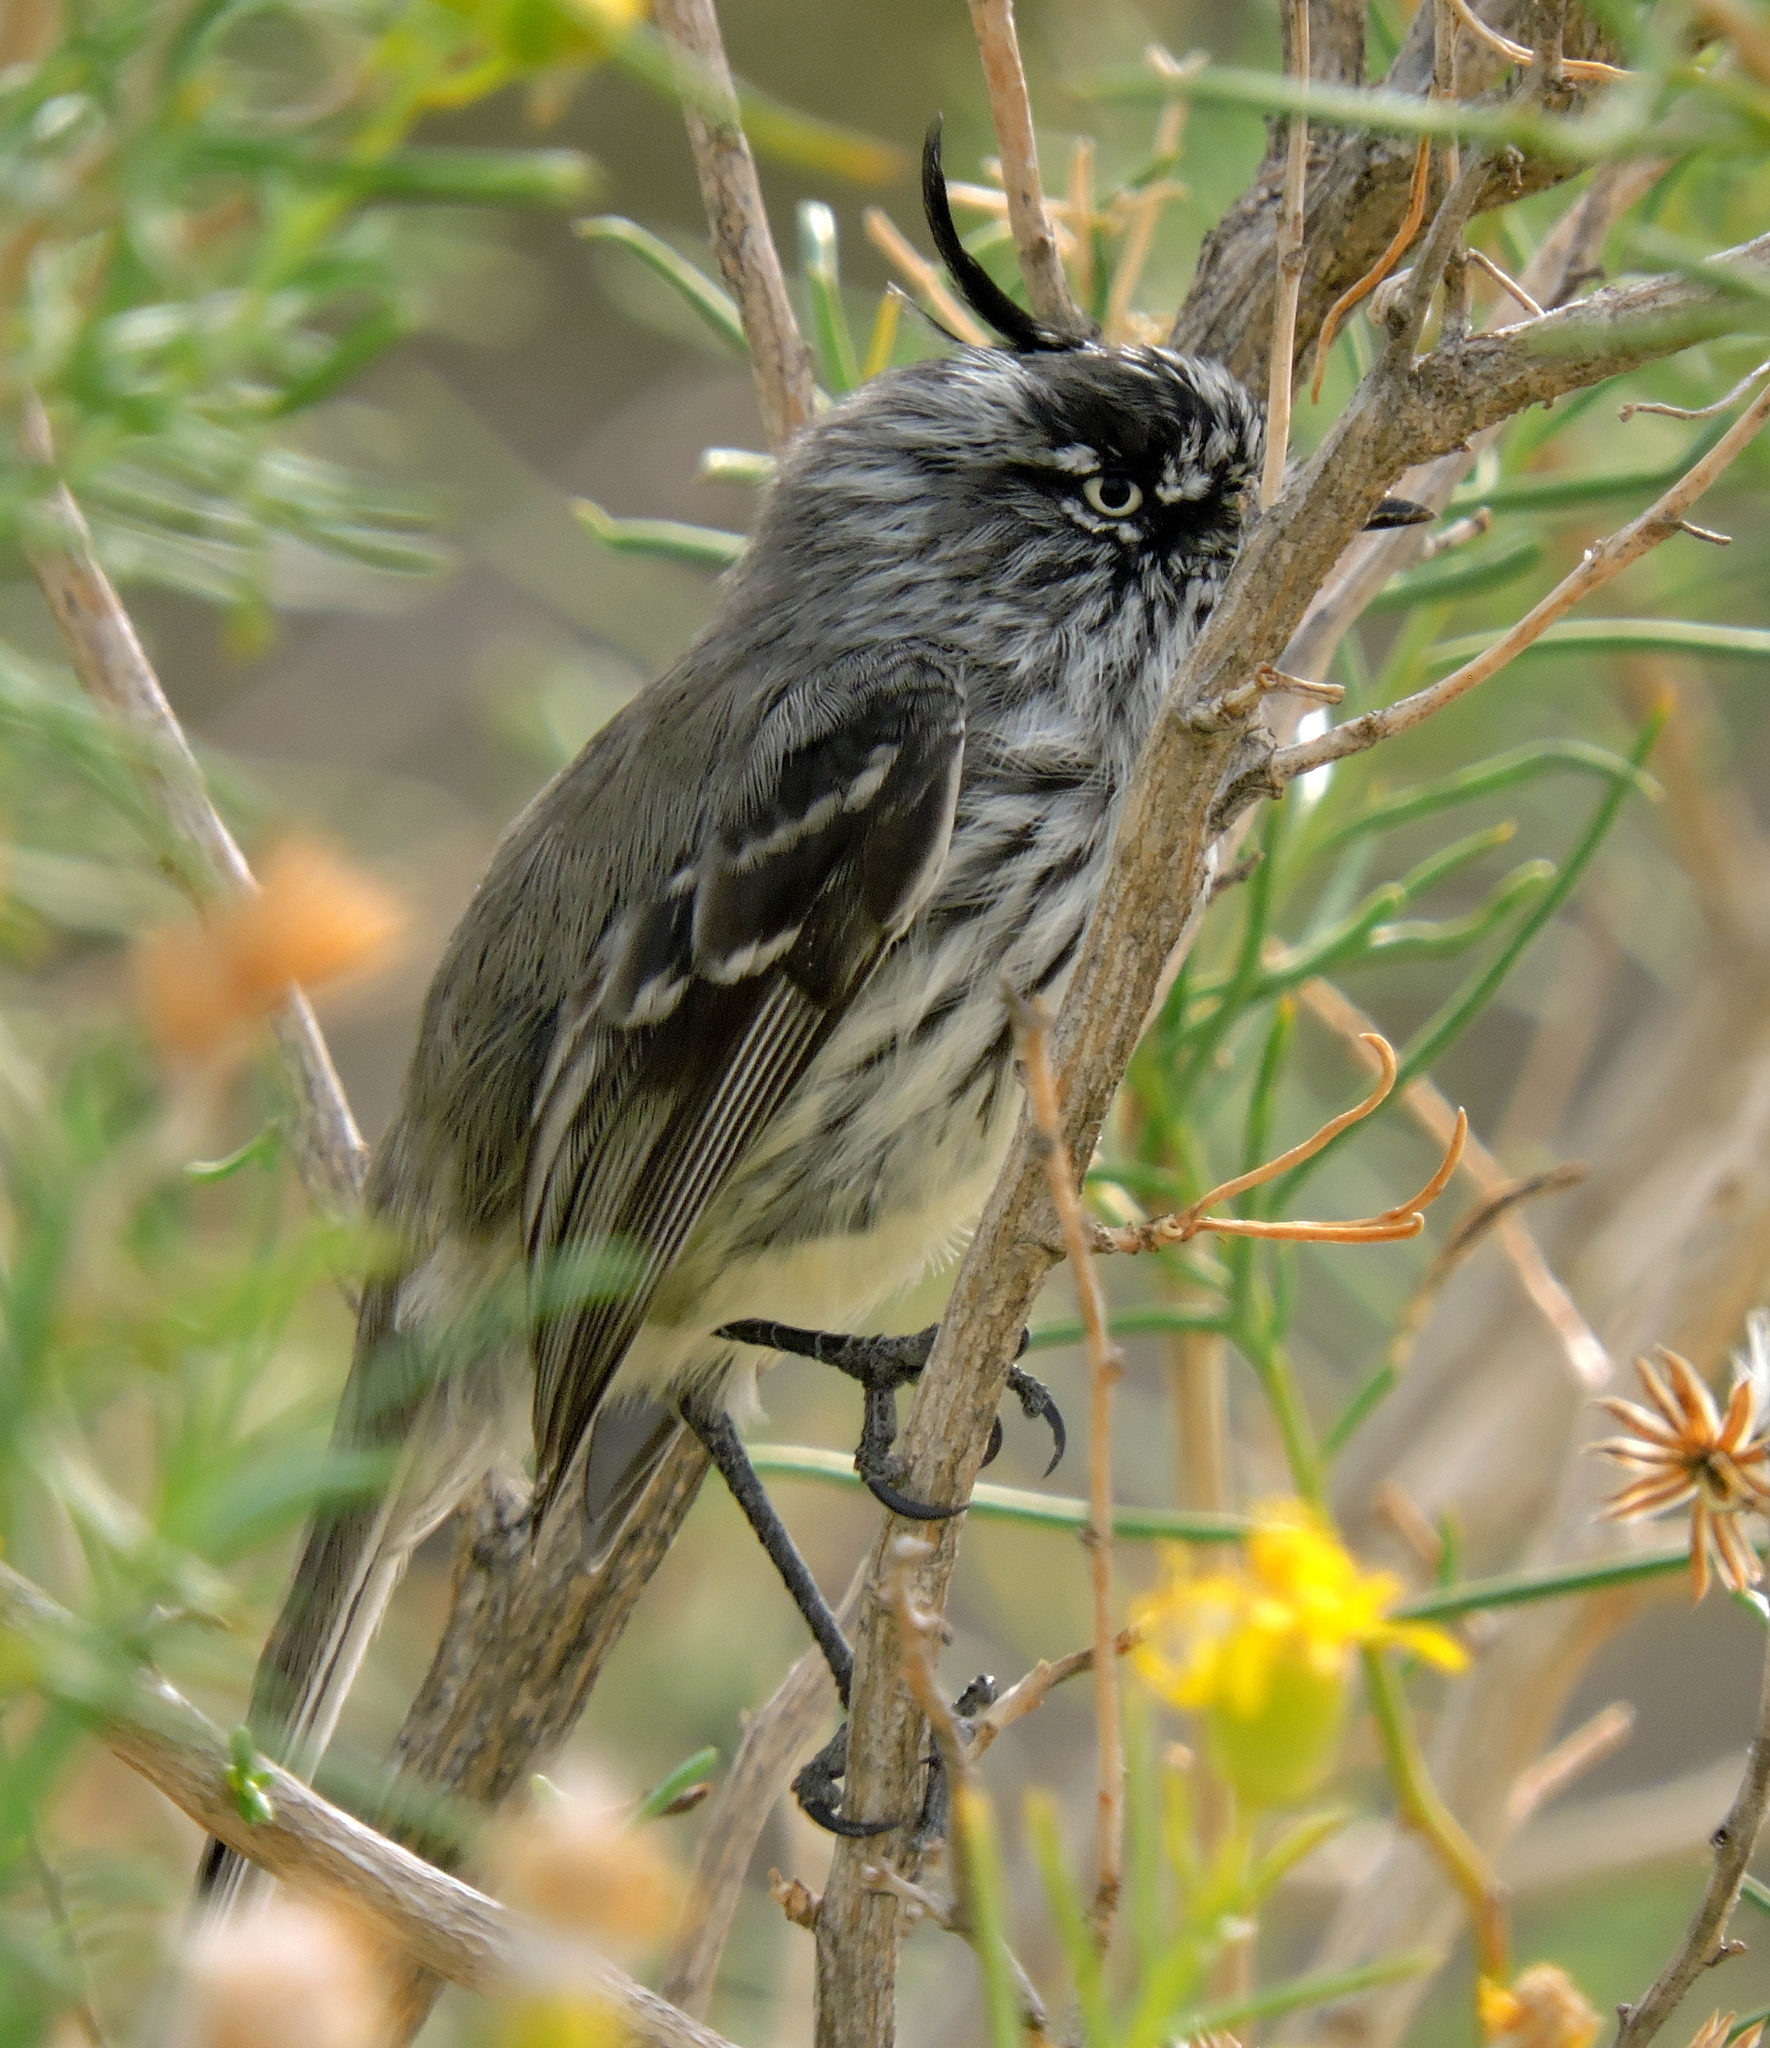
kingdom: Animalia
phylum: Chordata
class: Aves
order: Passeriformes
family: Tyrannidae
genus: Anairetes
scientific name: Anairetes parulus
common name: Tufted tit-tyrant
